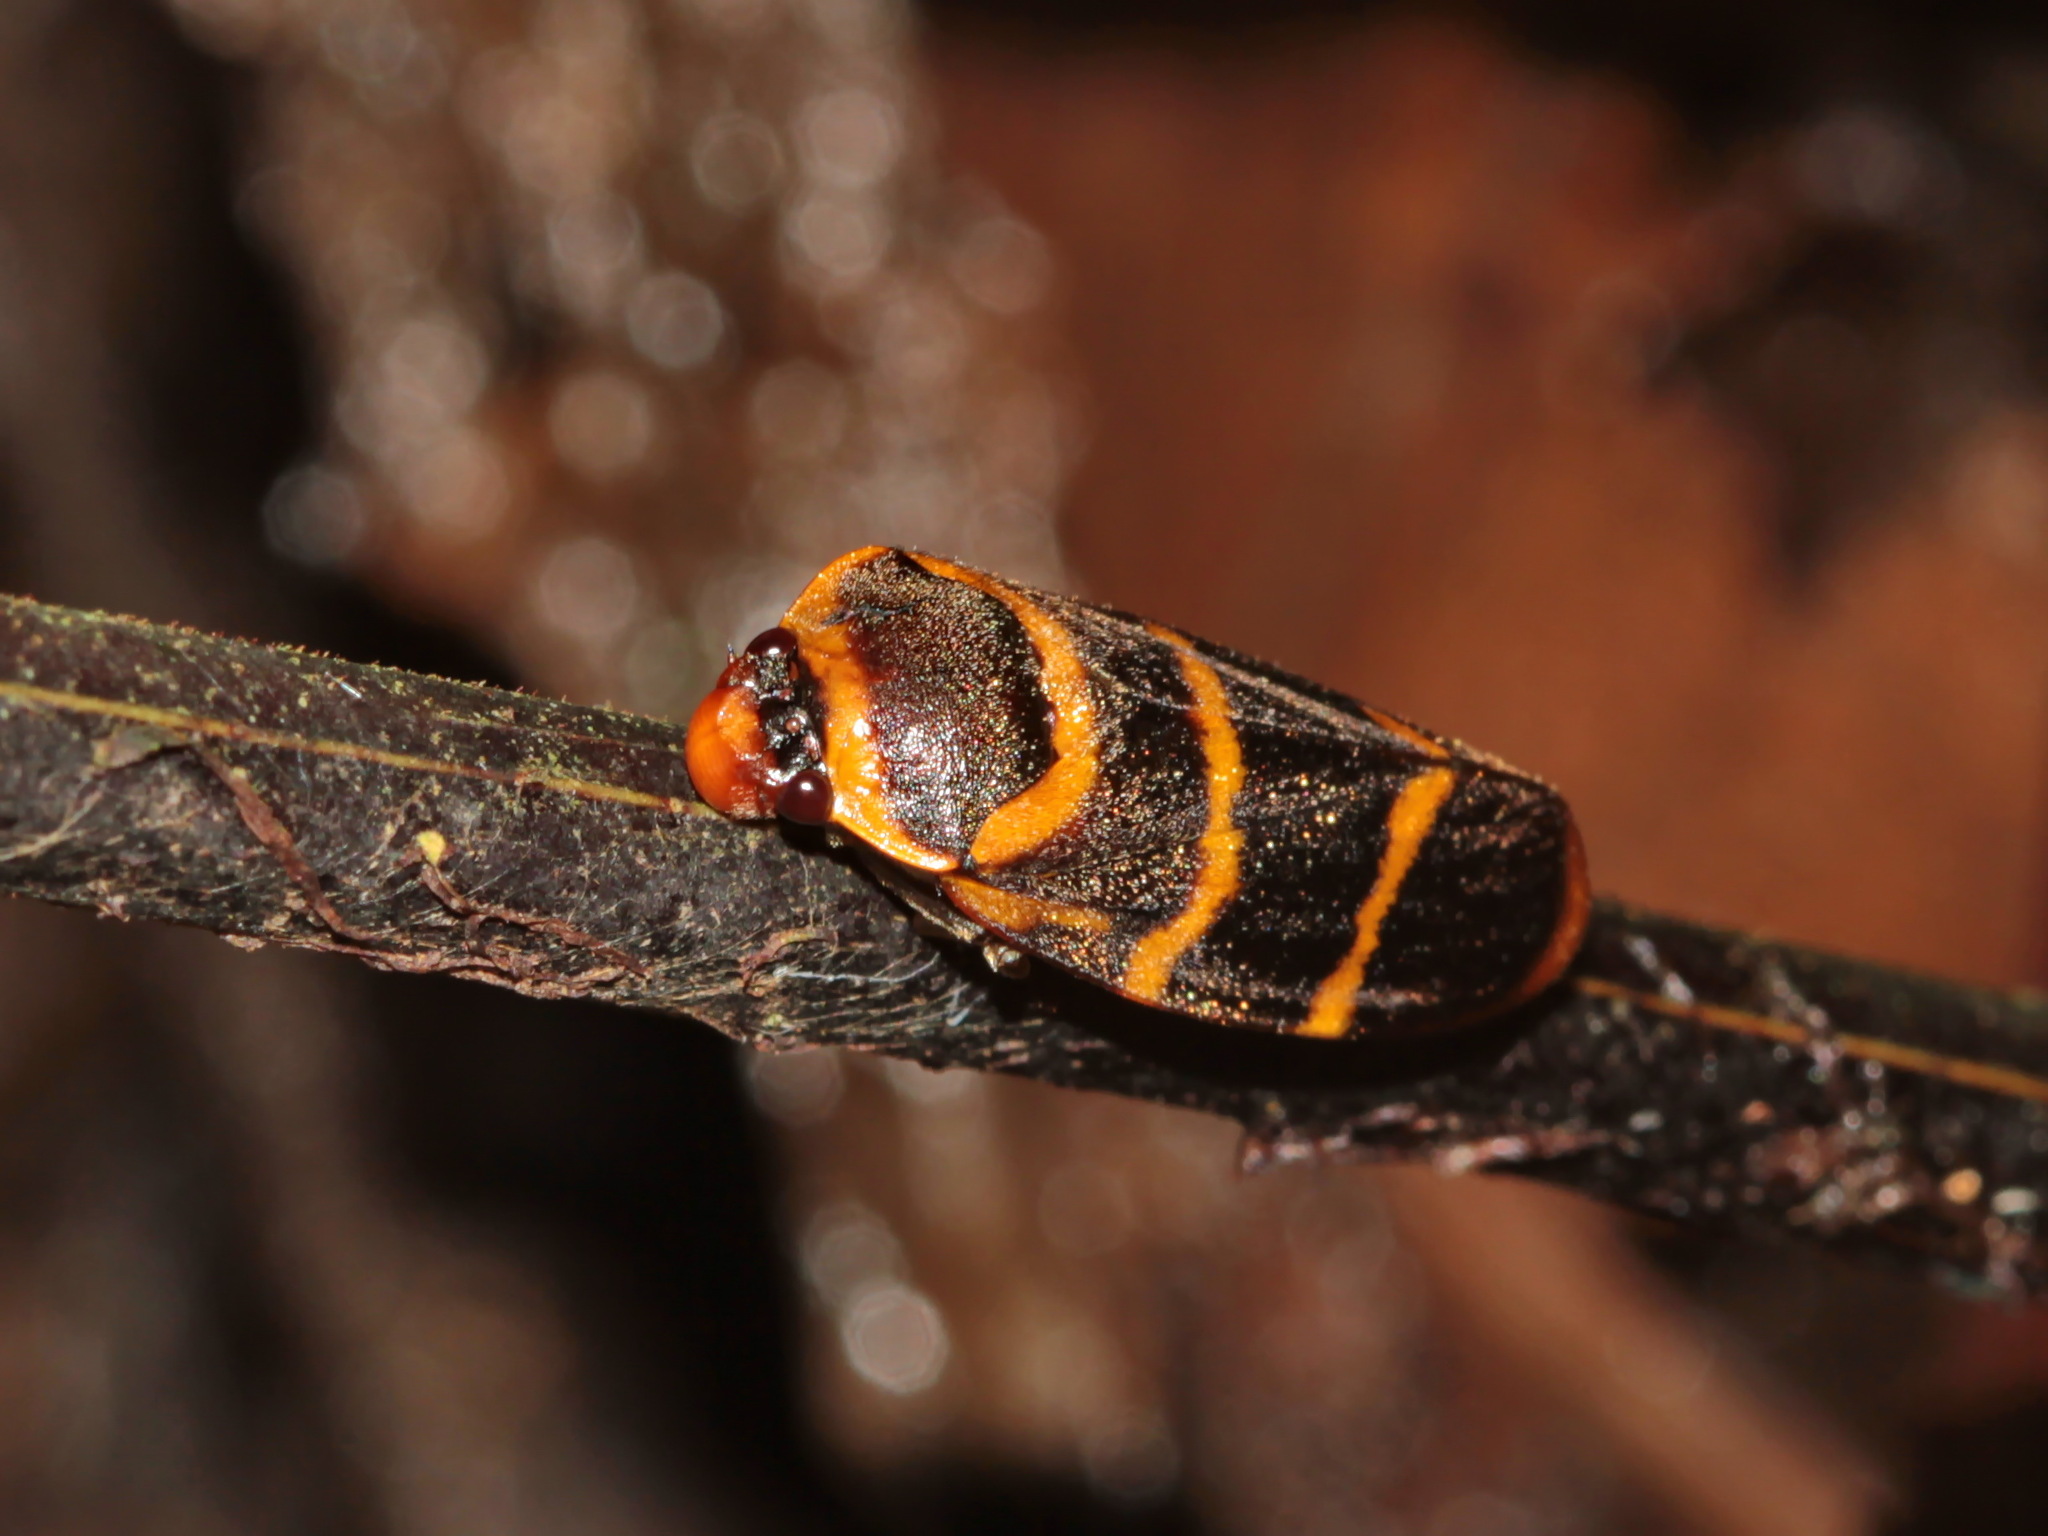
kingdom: Animalia
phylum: Arthropoda
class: Insecta
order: Hemiptera
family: Cercopidae
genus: Phymatostetha
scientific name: Phymatostetha stalii
